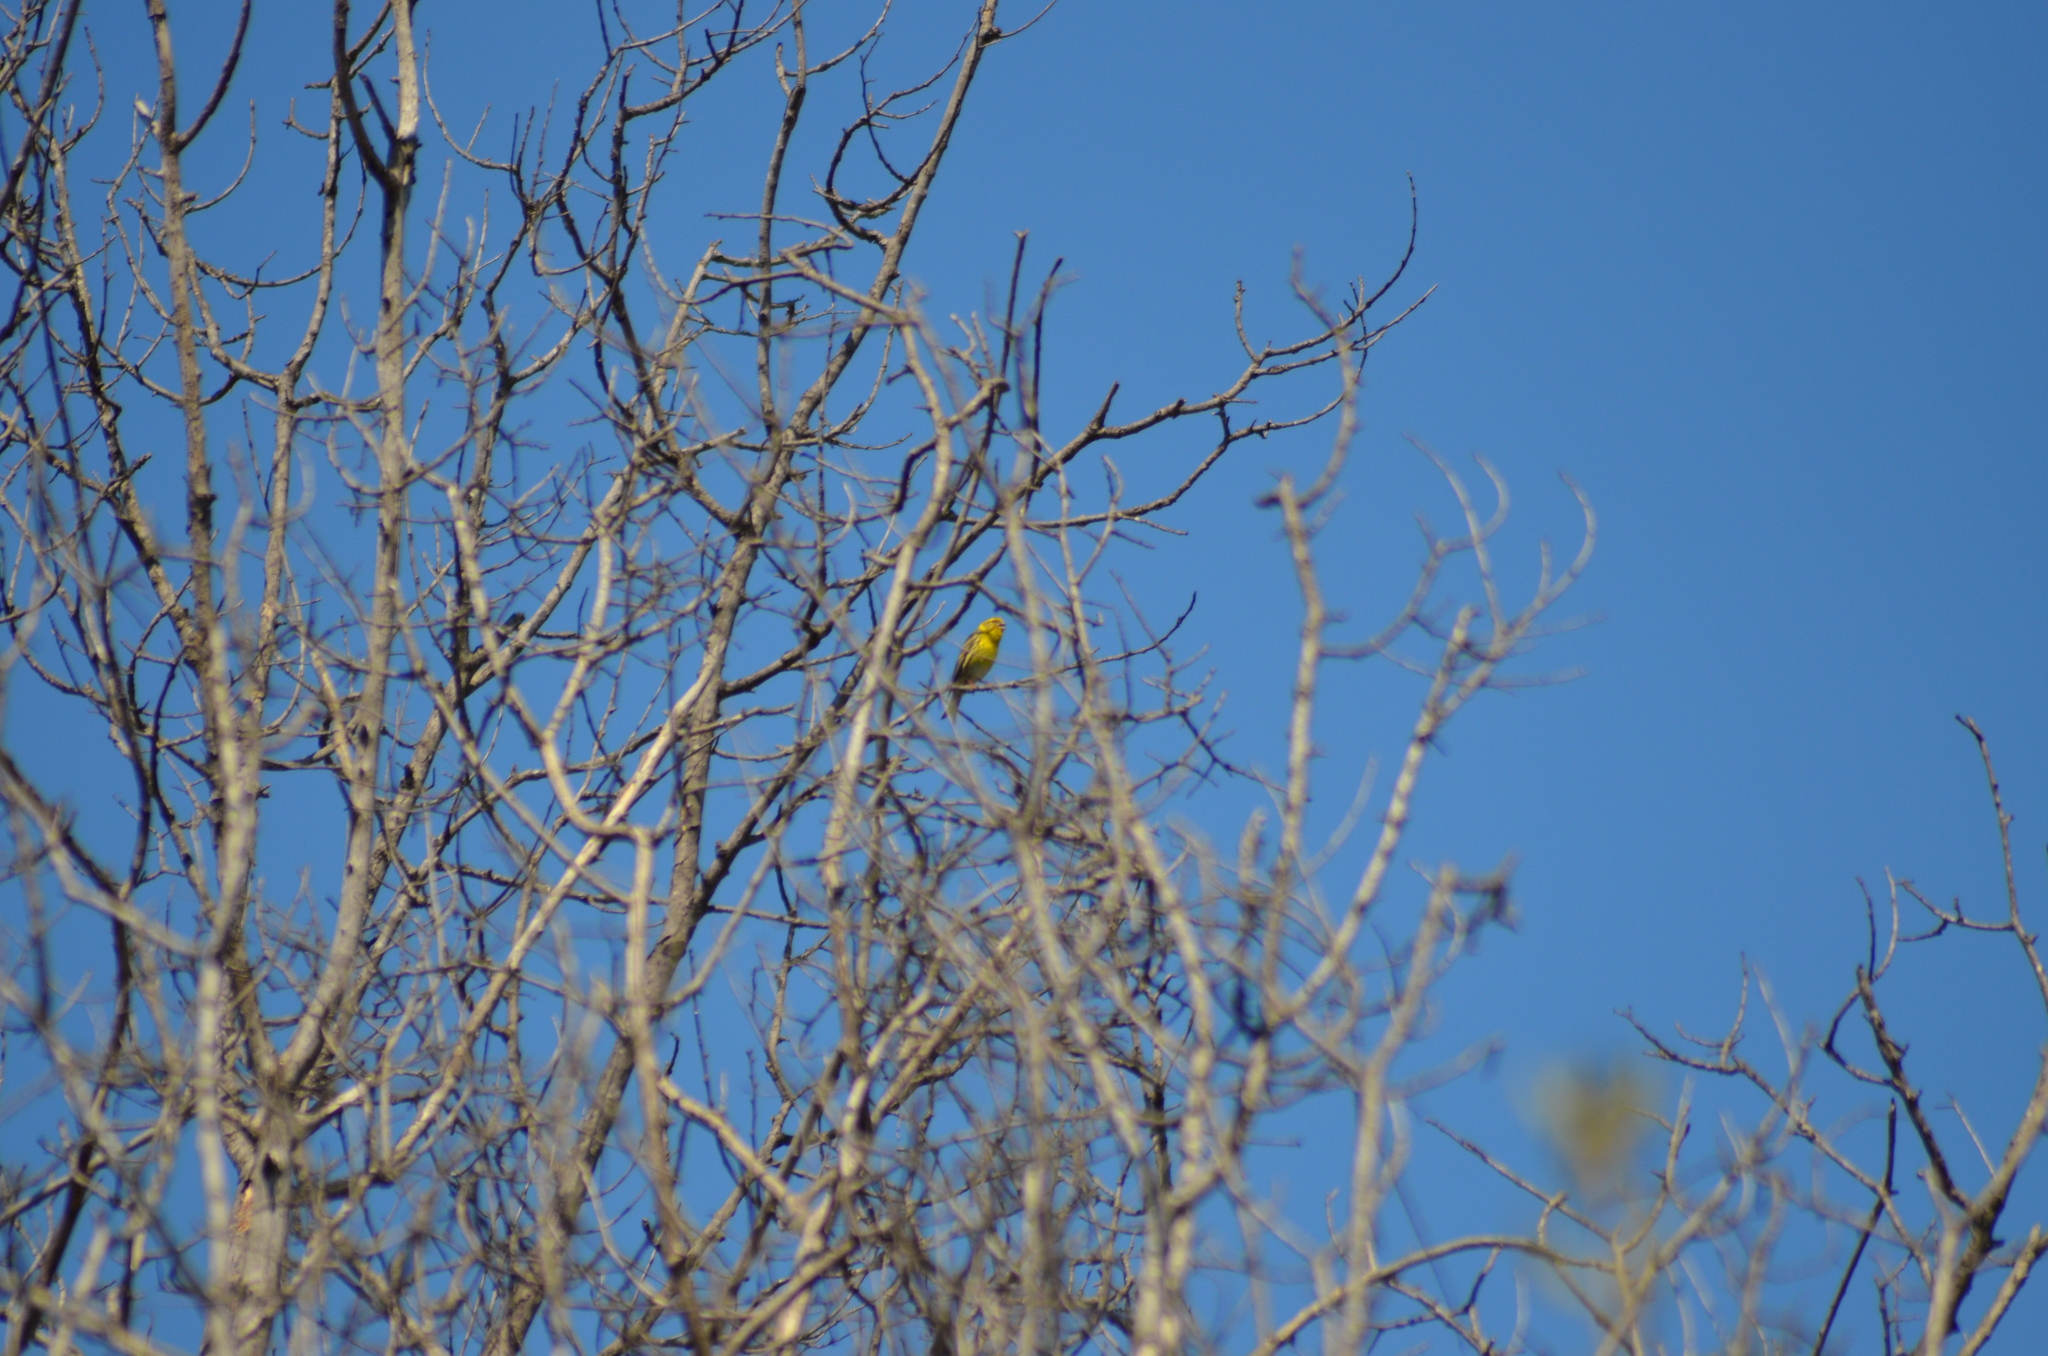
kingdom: Animalia
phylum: Chordata
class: Aves
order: Passeriformes
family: Fringillidae
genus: Serinus
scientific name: Serinus serinus
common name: European serin
